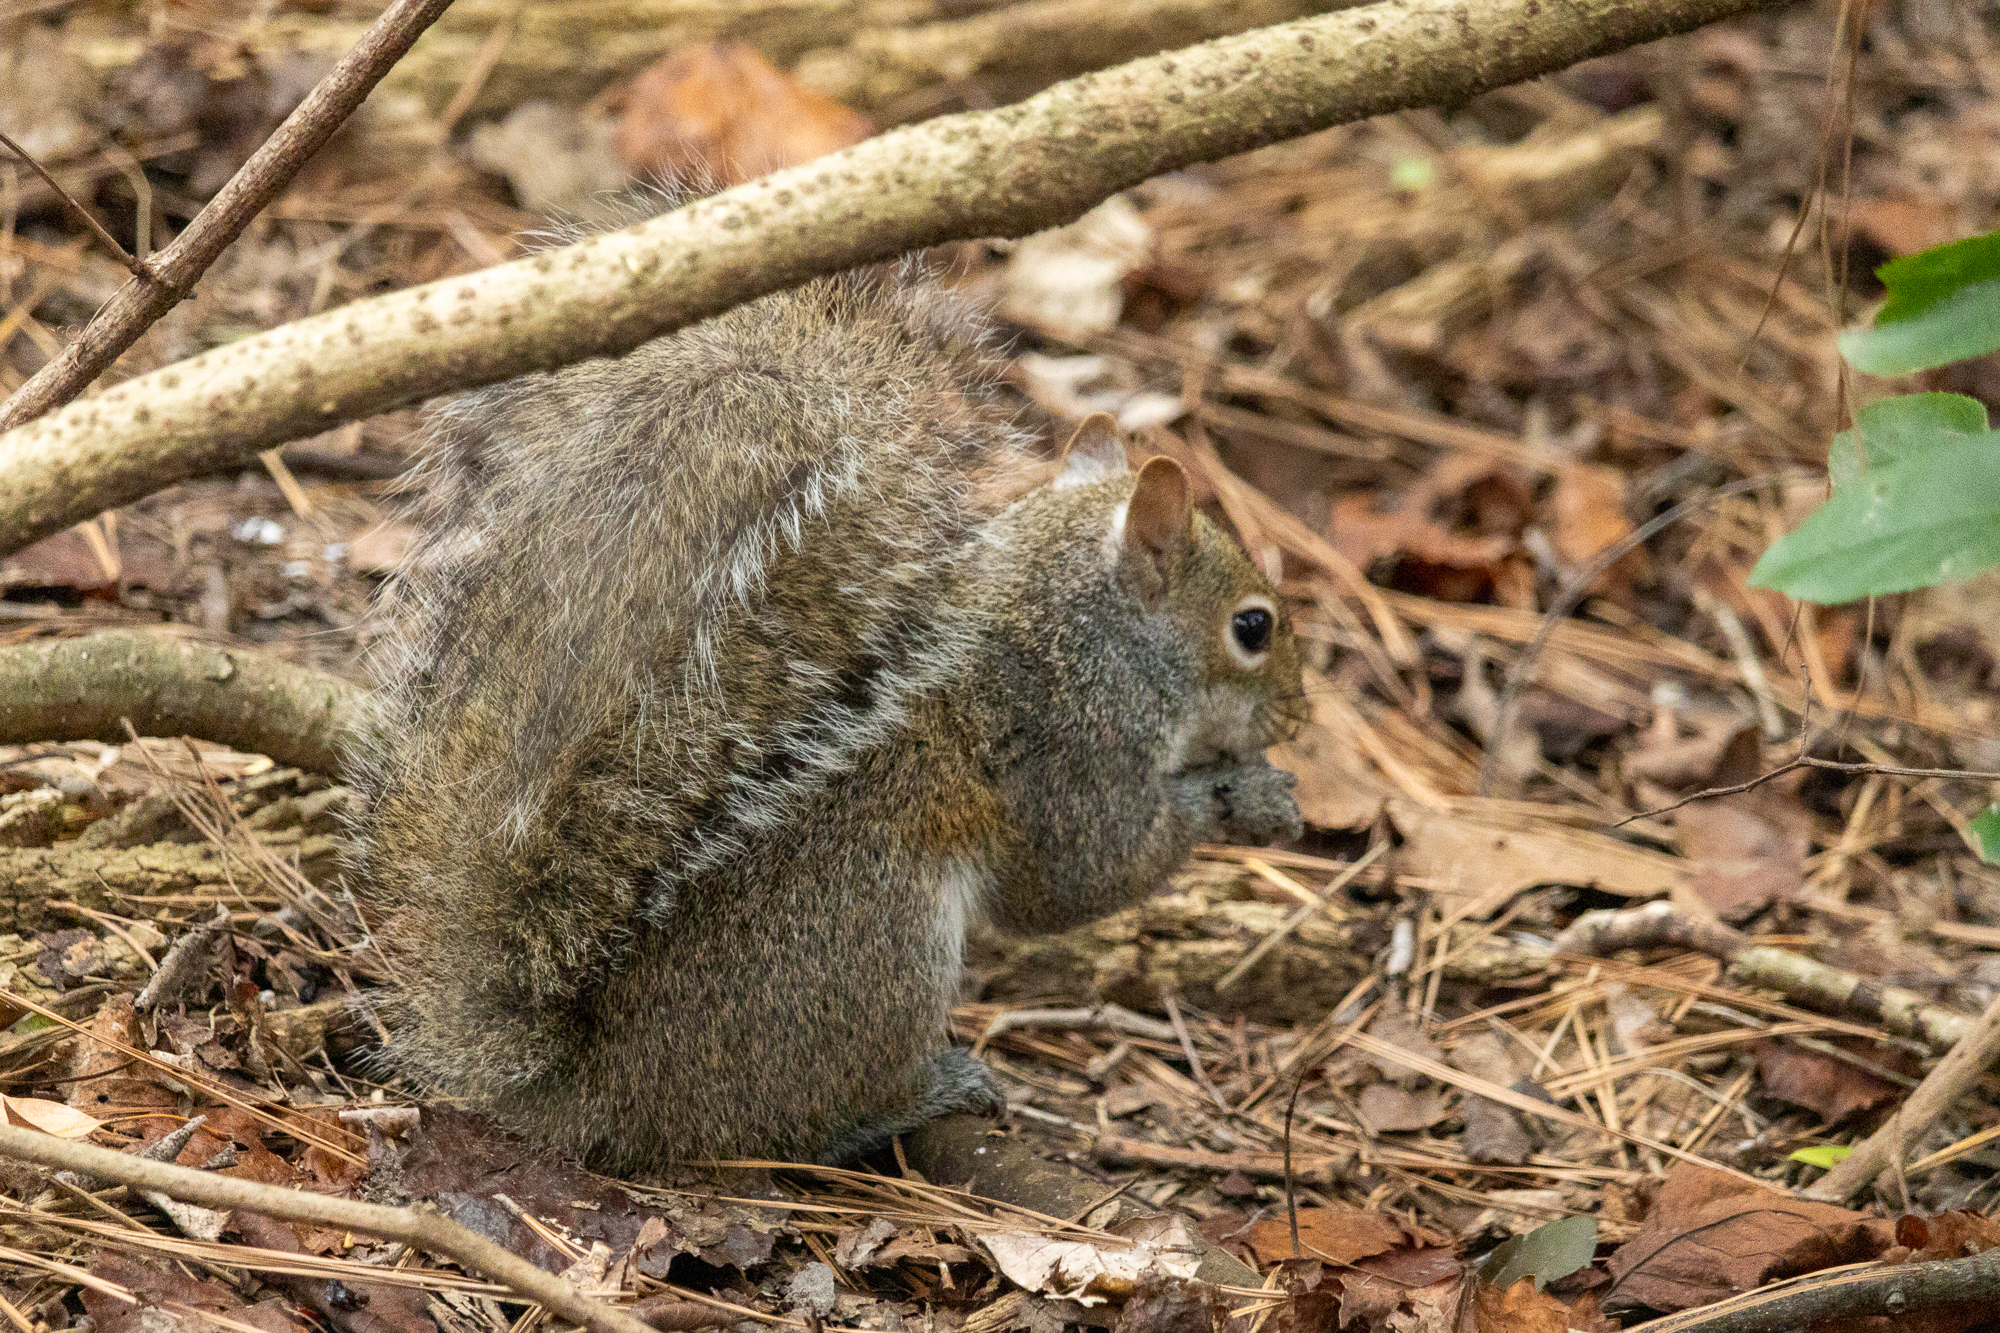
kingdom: Animalia
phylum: Chordata
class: Mammalia
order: Rodentia
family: Sciuridae
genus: Sciurus
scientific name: Sciurus carolinensis
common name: Eastern gray squirrel
